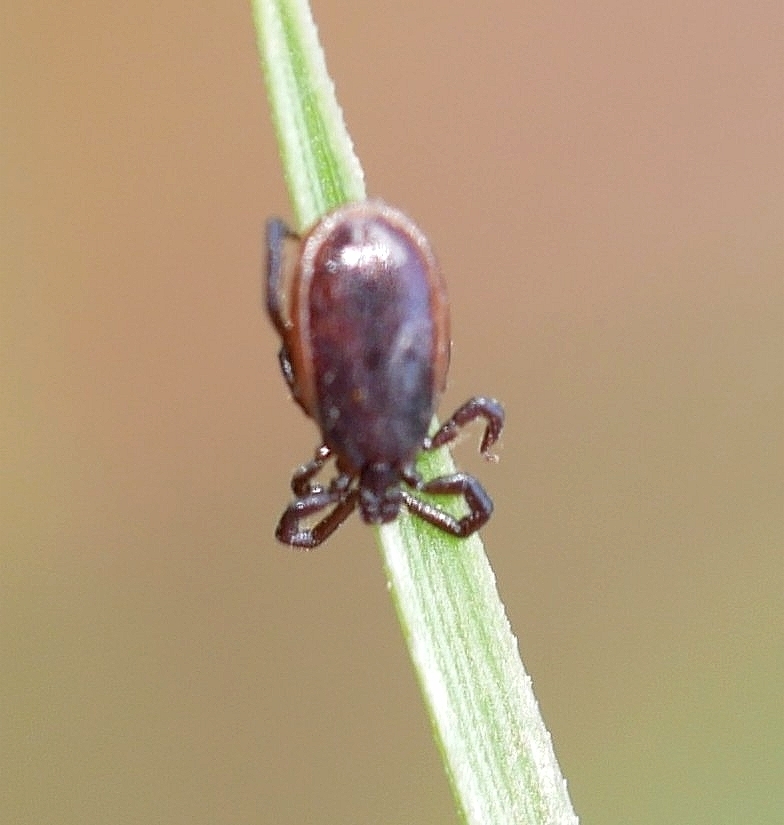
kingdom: Animalia
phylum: Arthropoda
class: Arachnida
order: Ixodida
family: Ixodidae
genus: Ixodes
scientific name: Ixodes pacificus
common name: California black-legged tick
